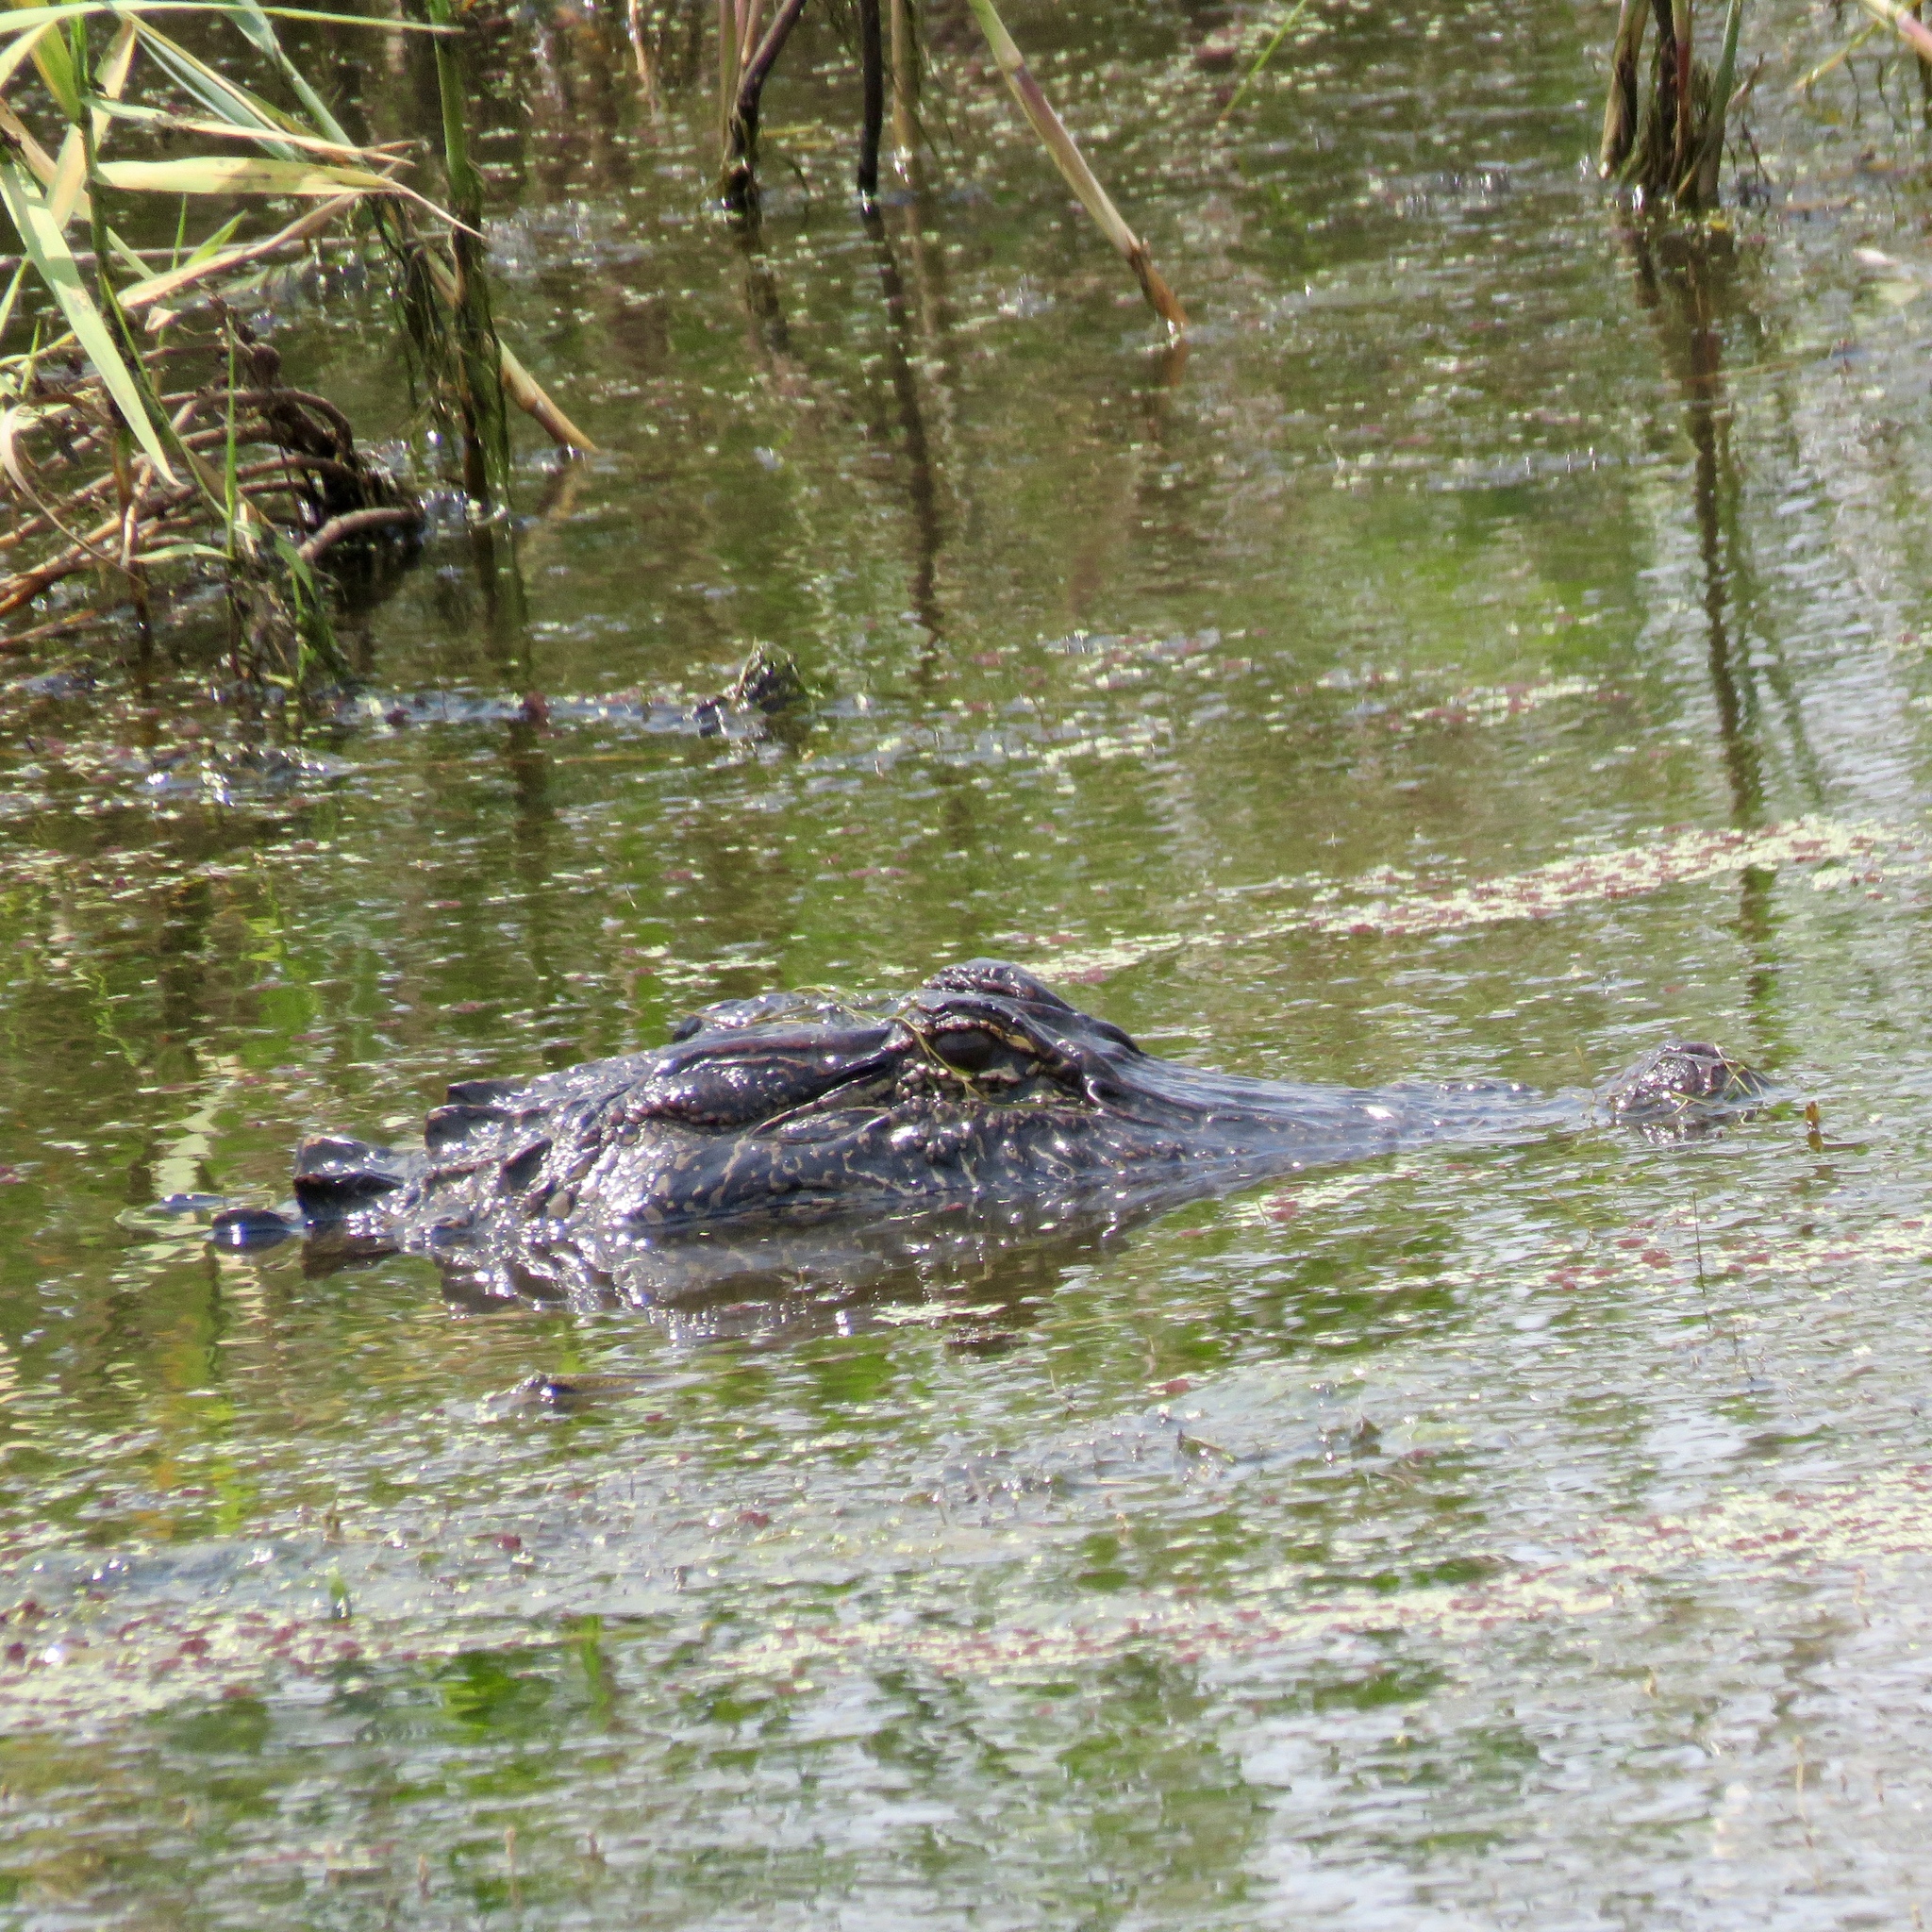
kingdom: Animalia
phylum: Chordata
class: Crocodylia
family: Alligatoridae
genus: Alligator
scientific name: Alligator mississippiensis
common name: American alligator
